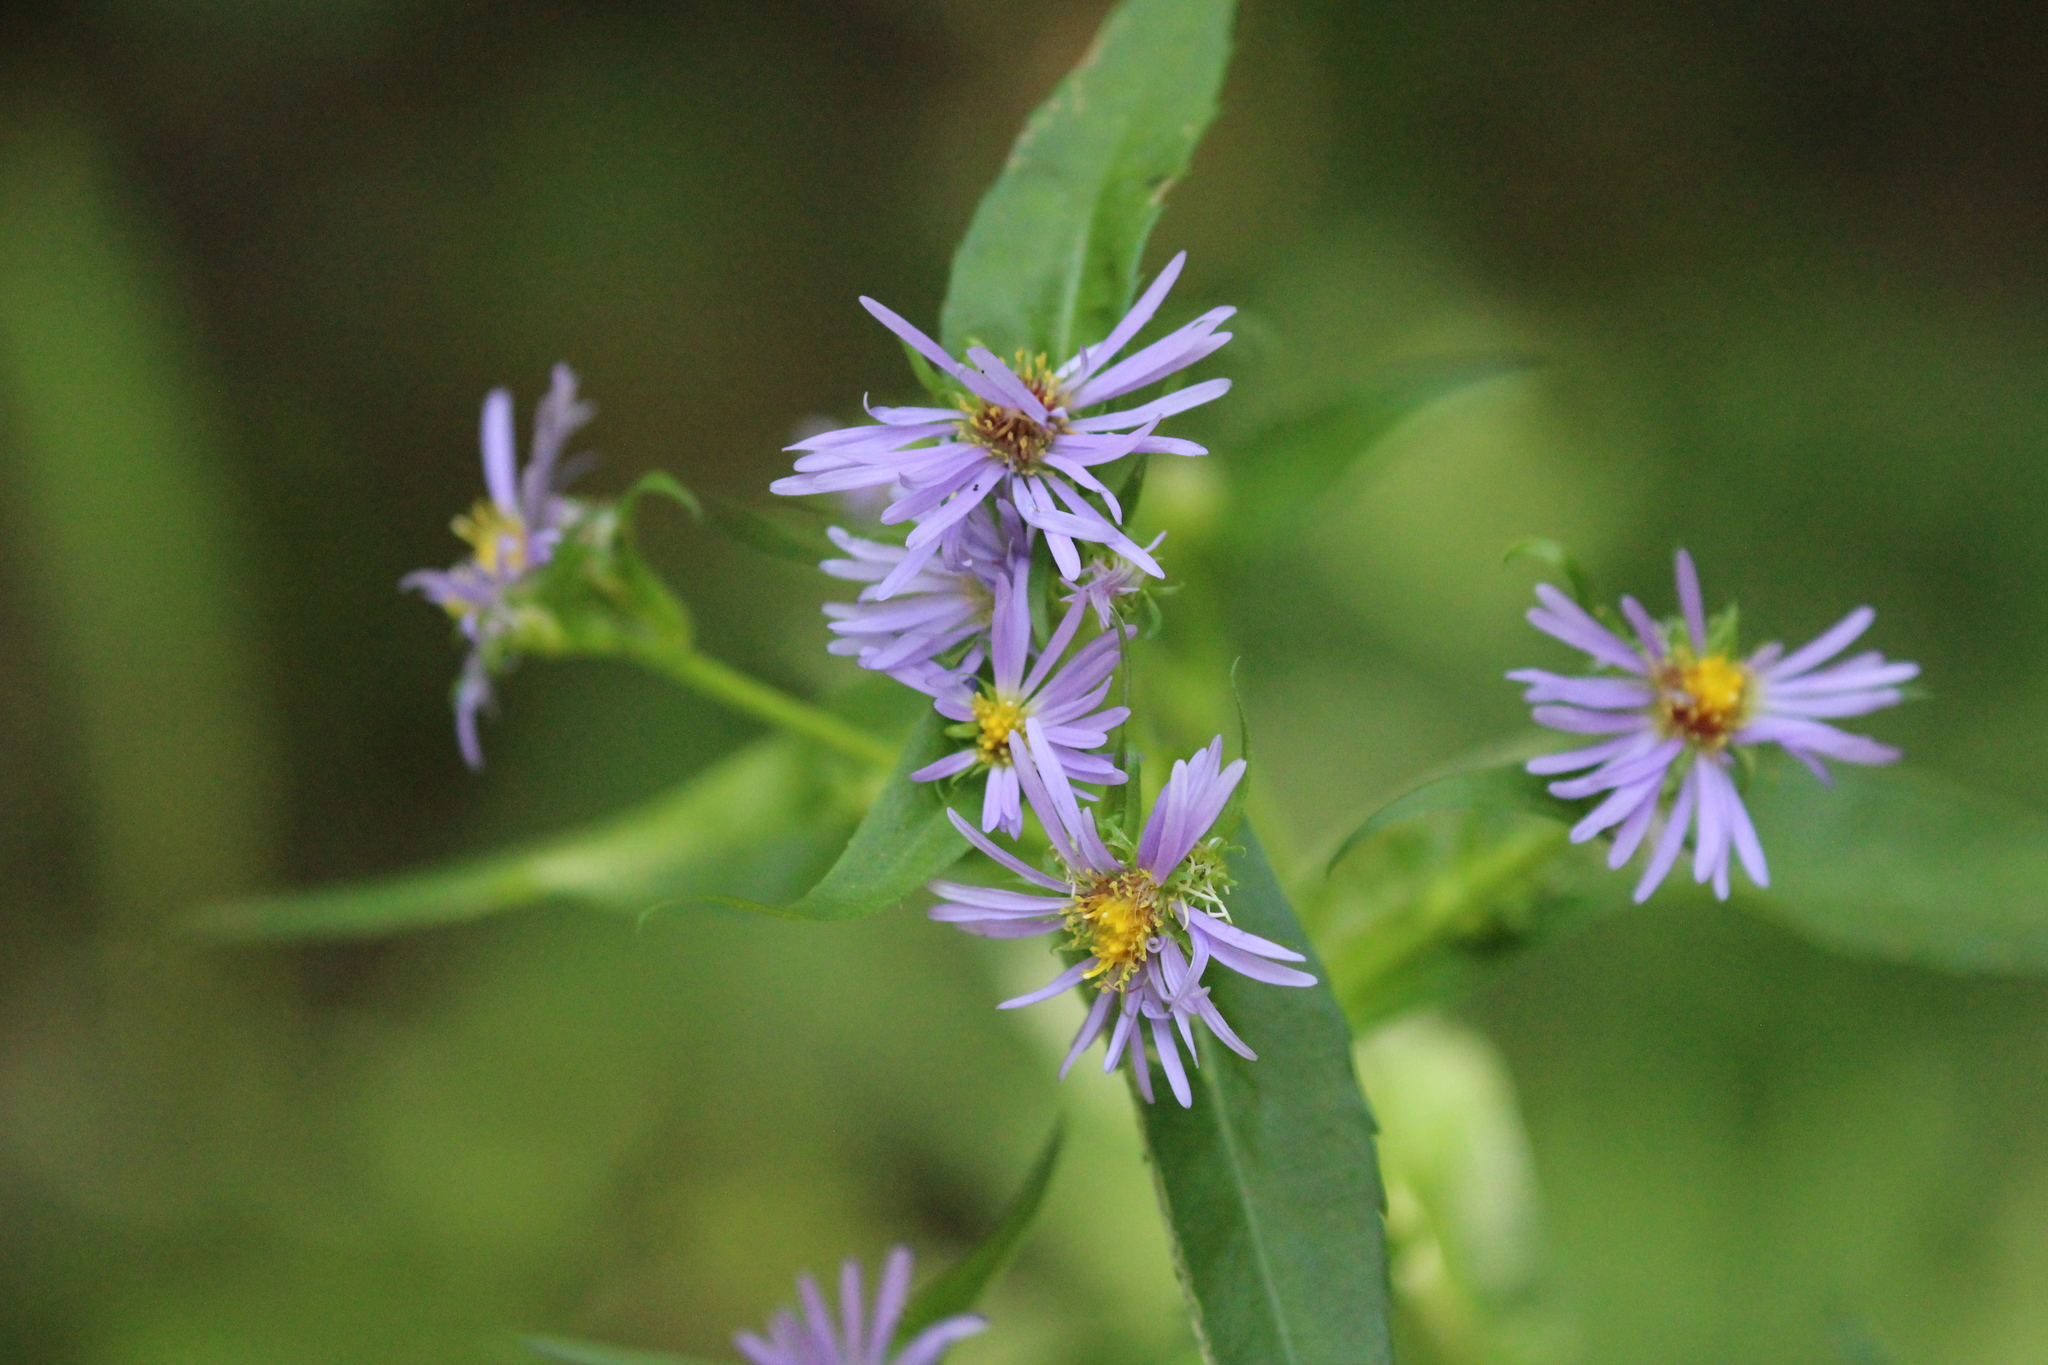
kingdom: Plantae
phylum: Tracheophyta
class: Magnoliopsida
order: Asterales
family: Asteraceae
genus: Symphyotrichum
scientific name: Symphyotrichum puniceum
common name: Bog aster
